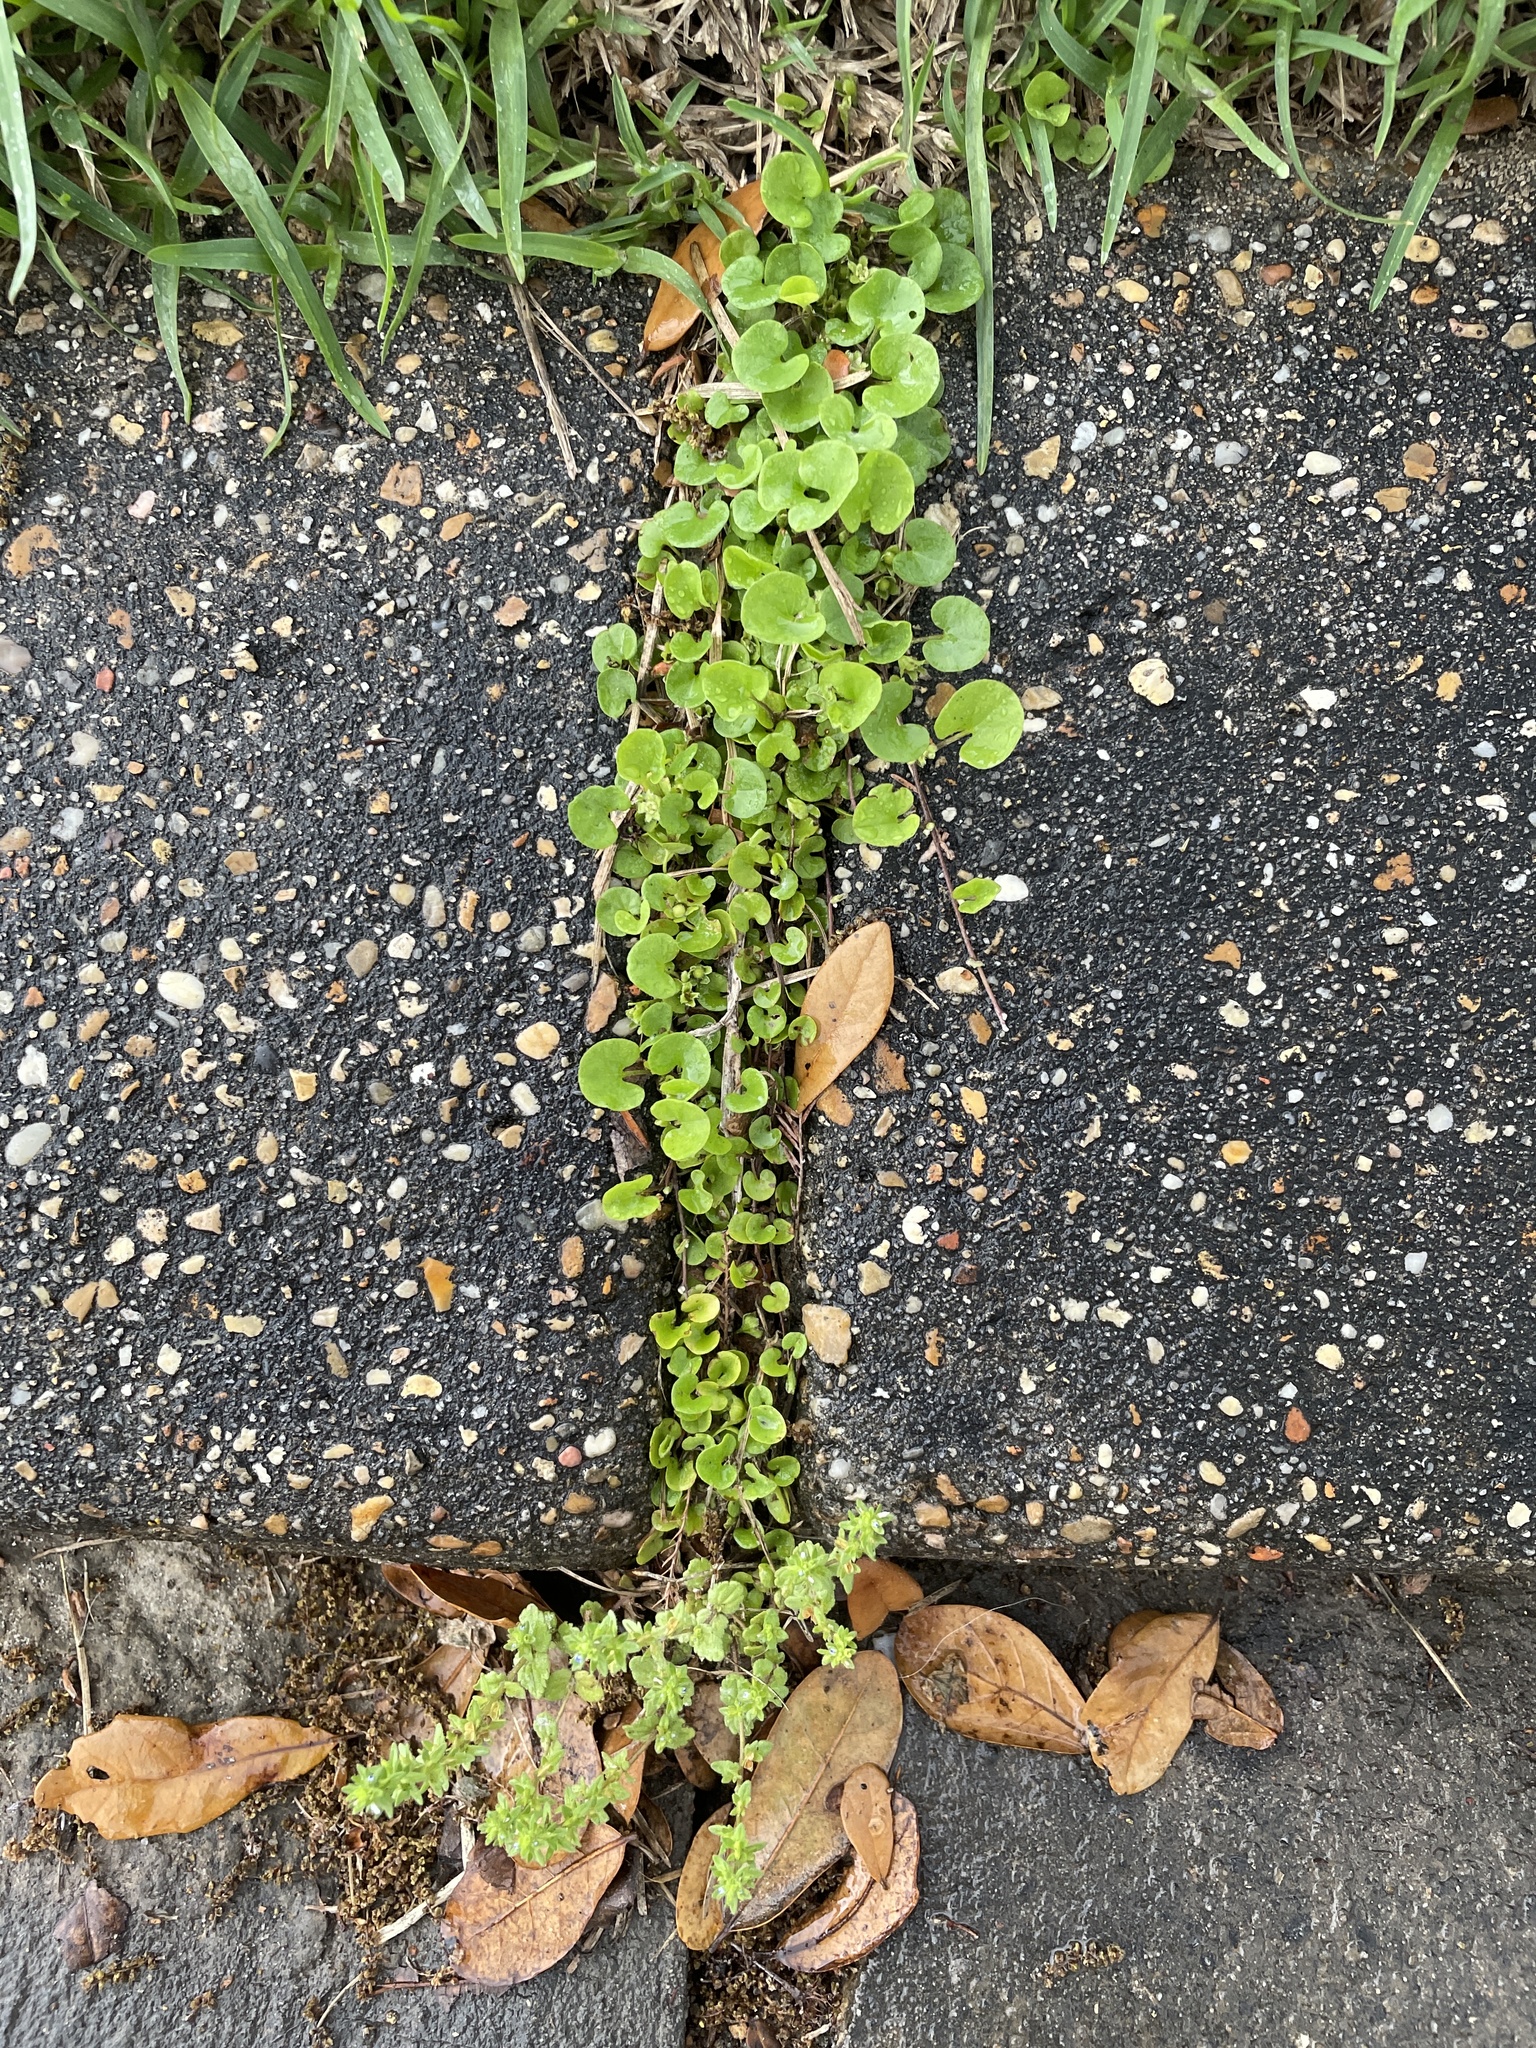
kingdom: Plantae
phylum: Tracheophyta
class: Magnoliopsida
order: Solanales
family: Convolvulaceae
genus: Dichondra
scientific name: Dichondra carolinensis
